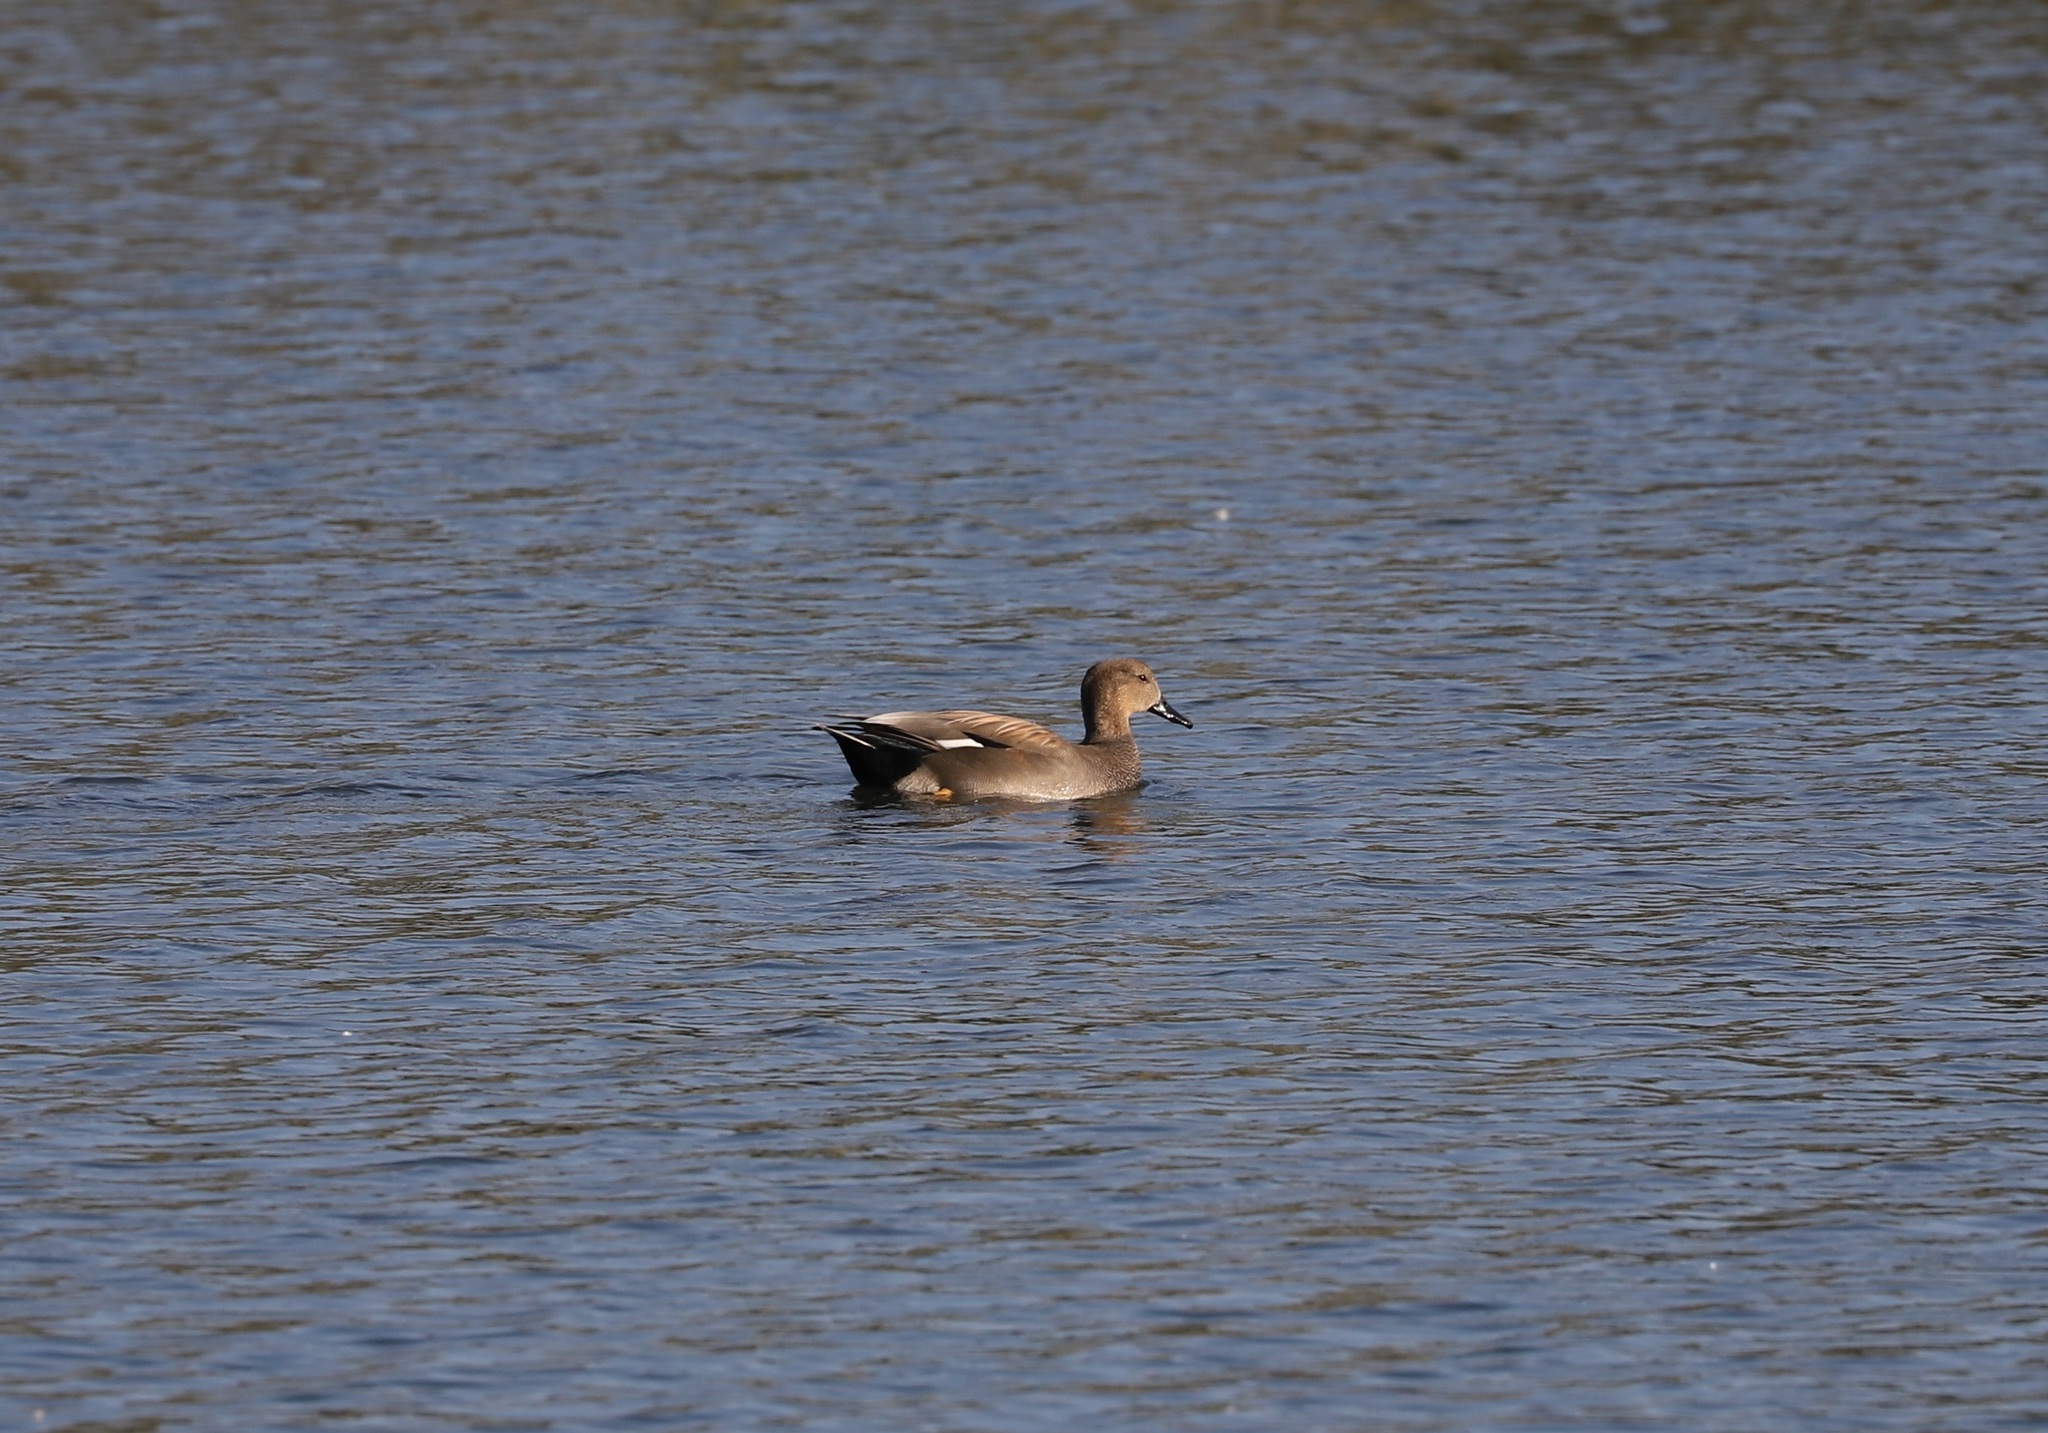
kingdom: Animalia
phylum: Chordata
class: Aves
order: Anseriformes
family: Anatidae
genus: Mareca
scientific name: Mareca strepera
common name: Gadwall
